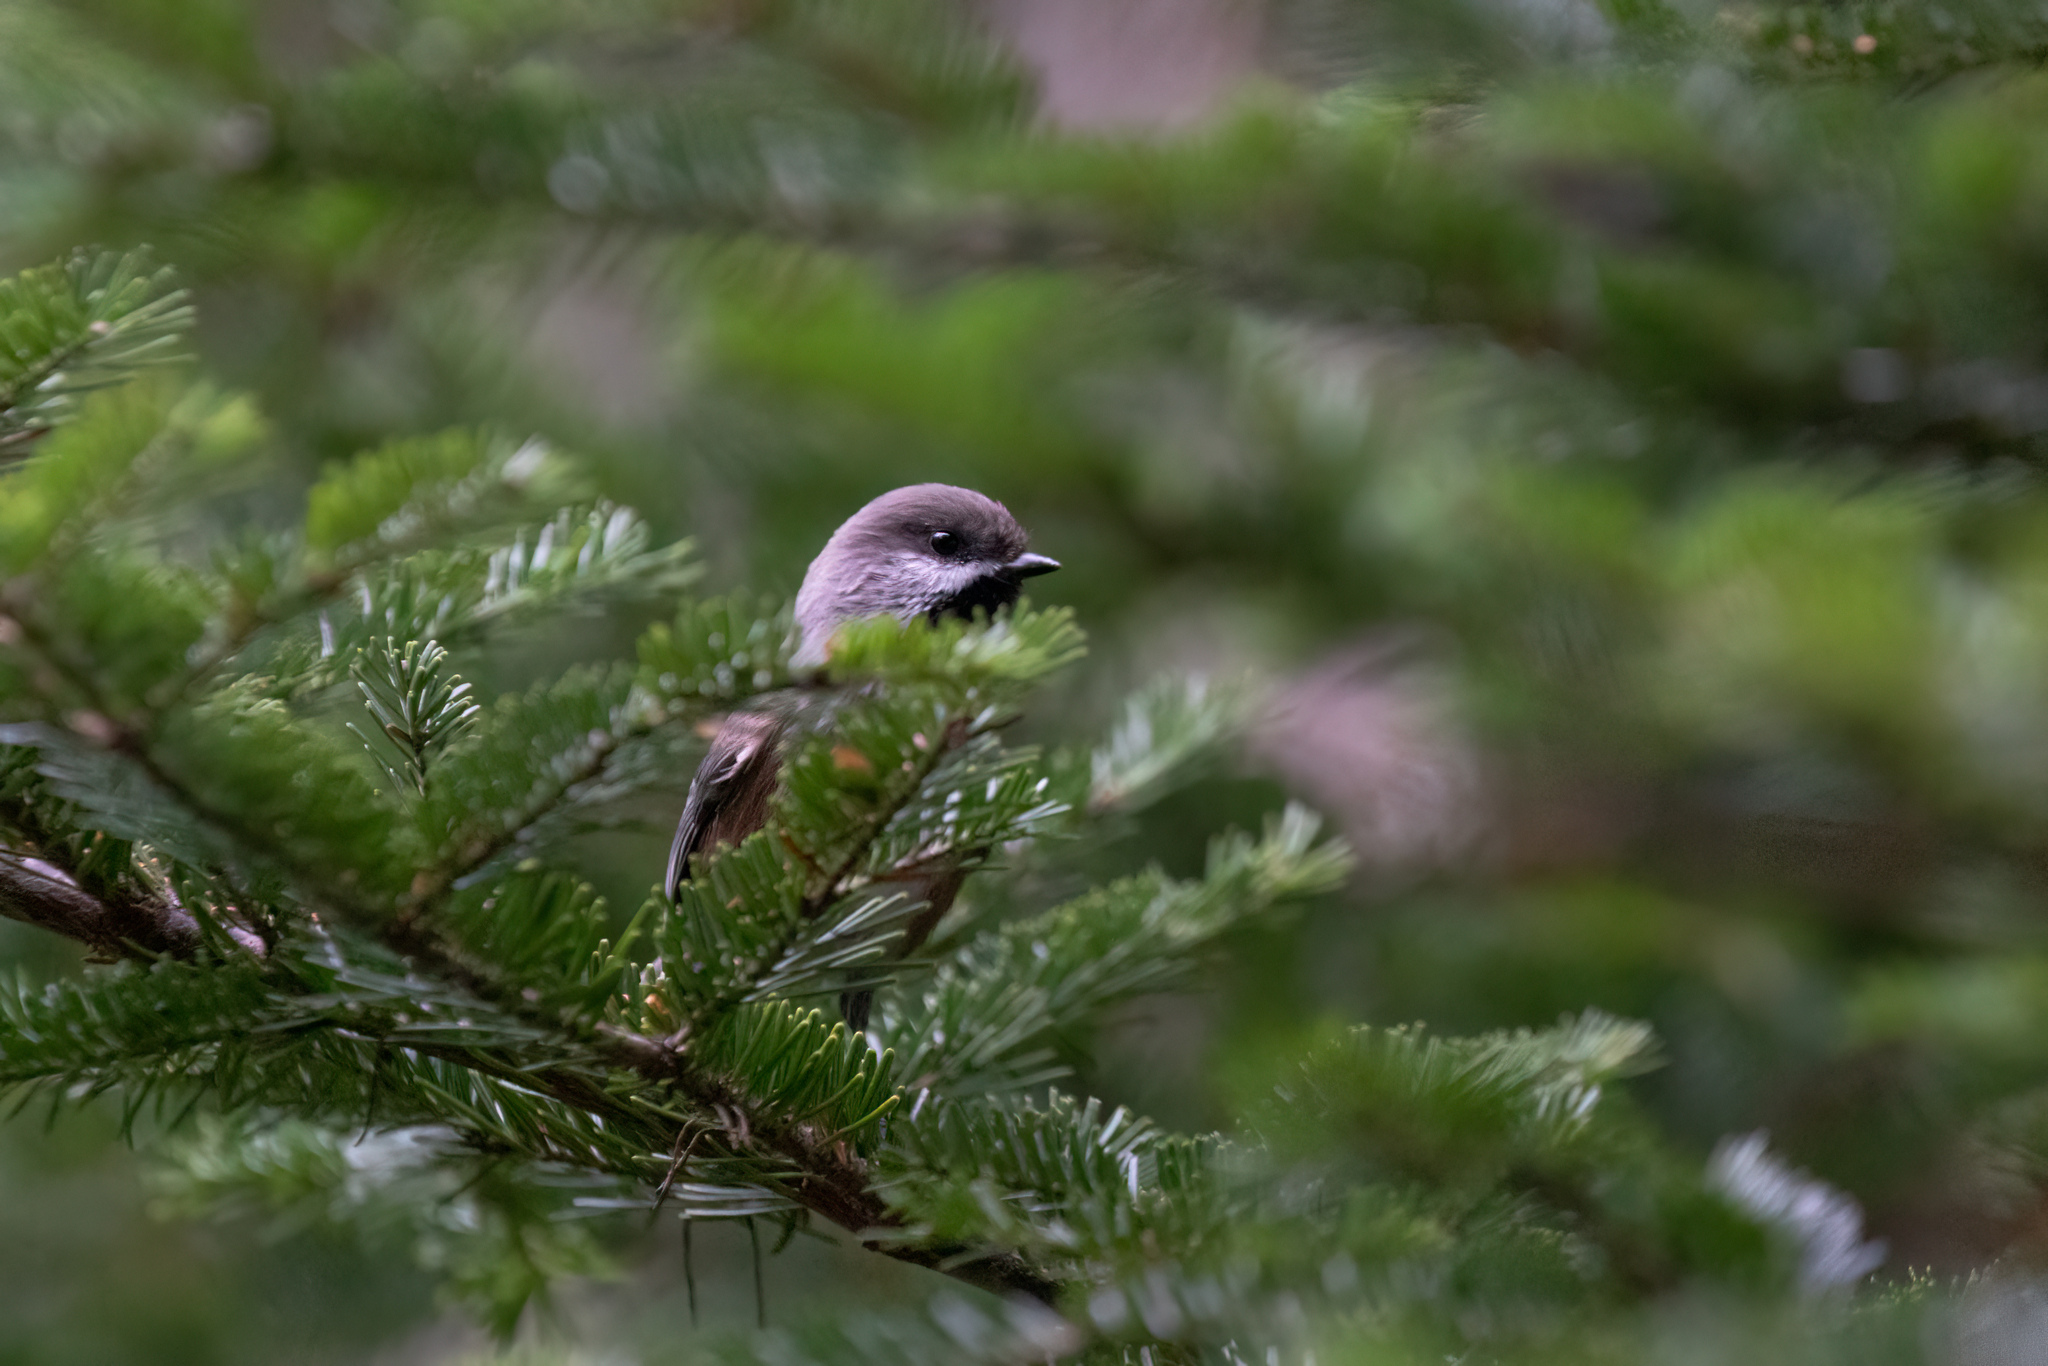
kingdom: Animalia
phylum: Chordata
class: Aves
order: Passeriformes
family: Paridae
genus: Poecile
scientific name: Poecile hudsonicus
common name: Boreal chickadee
